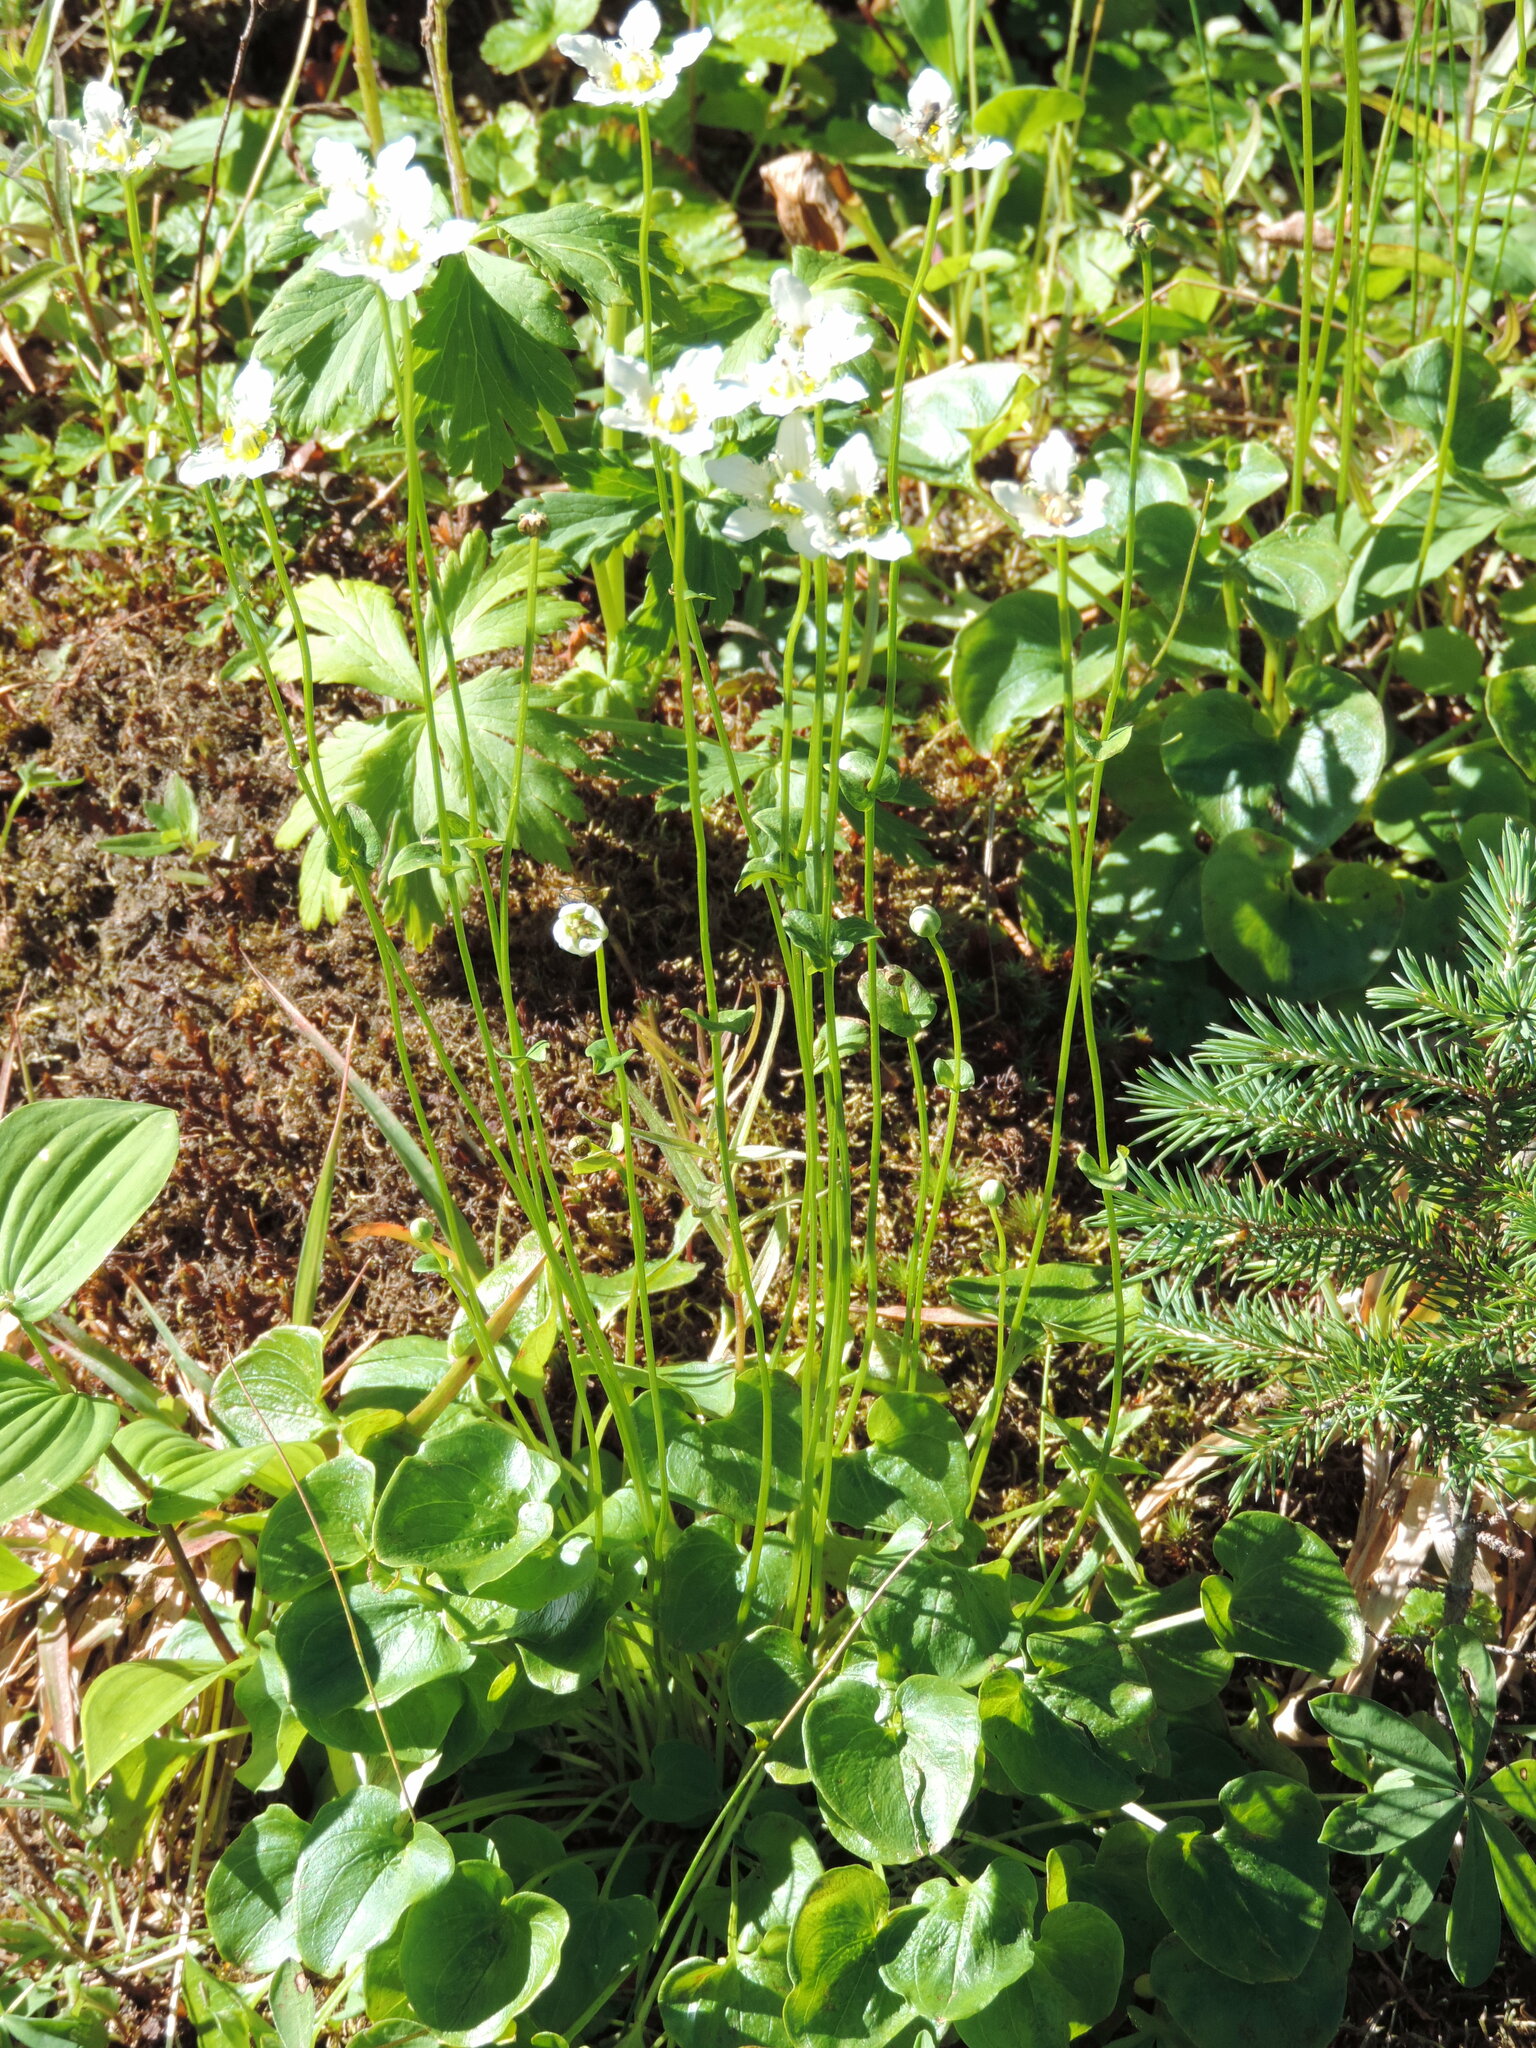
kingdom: Plantae
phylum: Tracheophyta
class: Magnoliopsida
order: Celastrales
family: Parnassiaceae
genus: Parnassia
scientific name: Parnassia fimbriata
